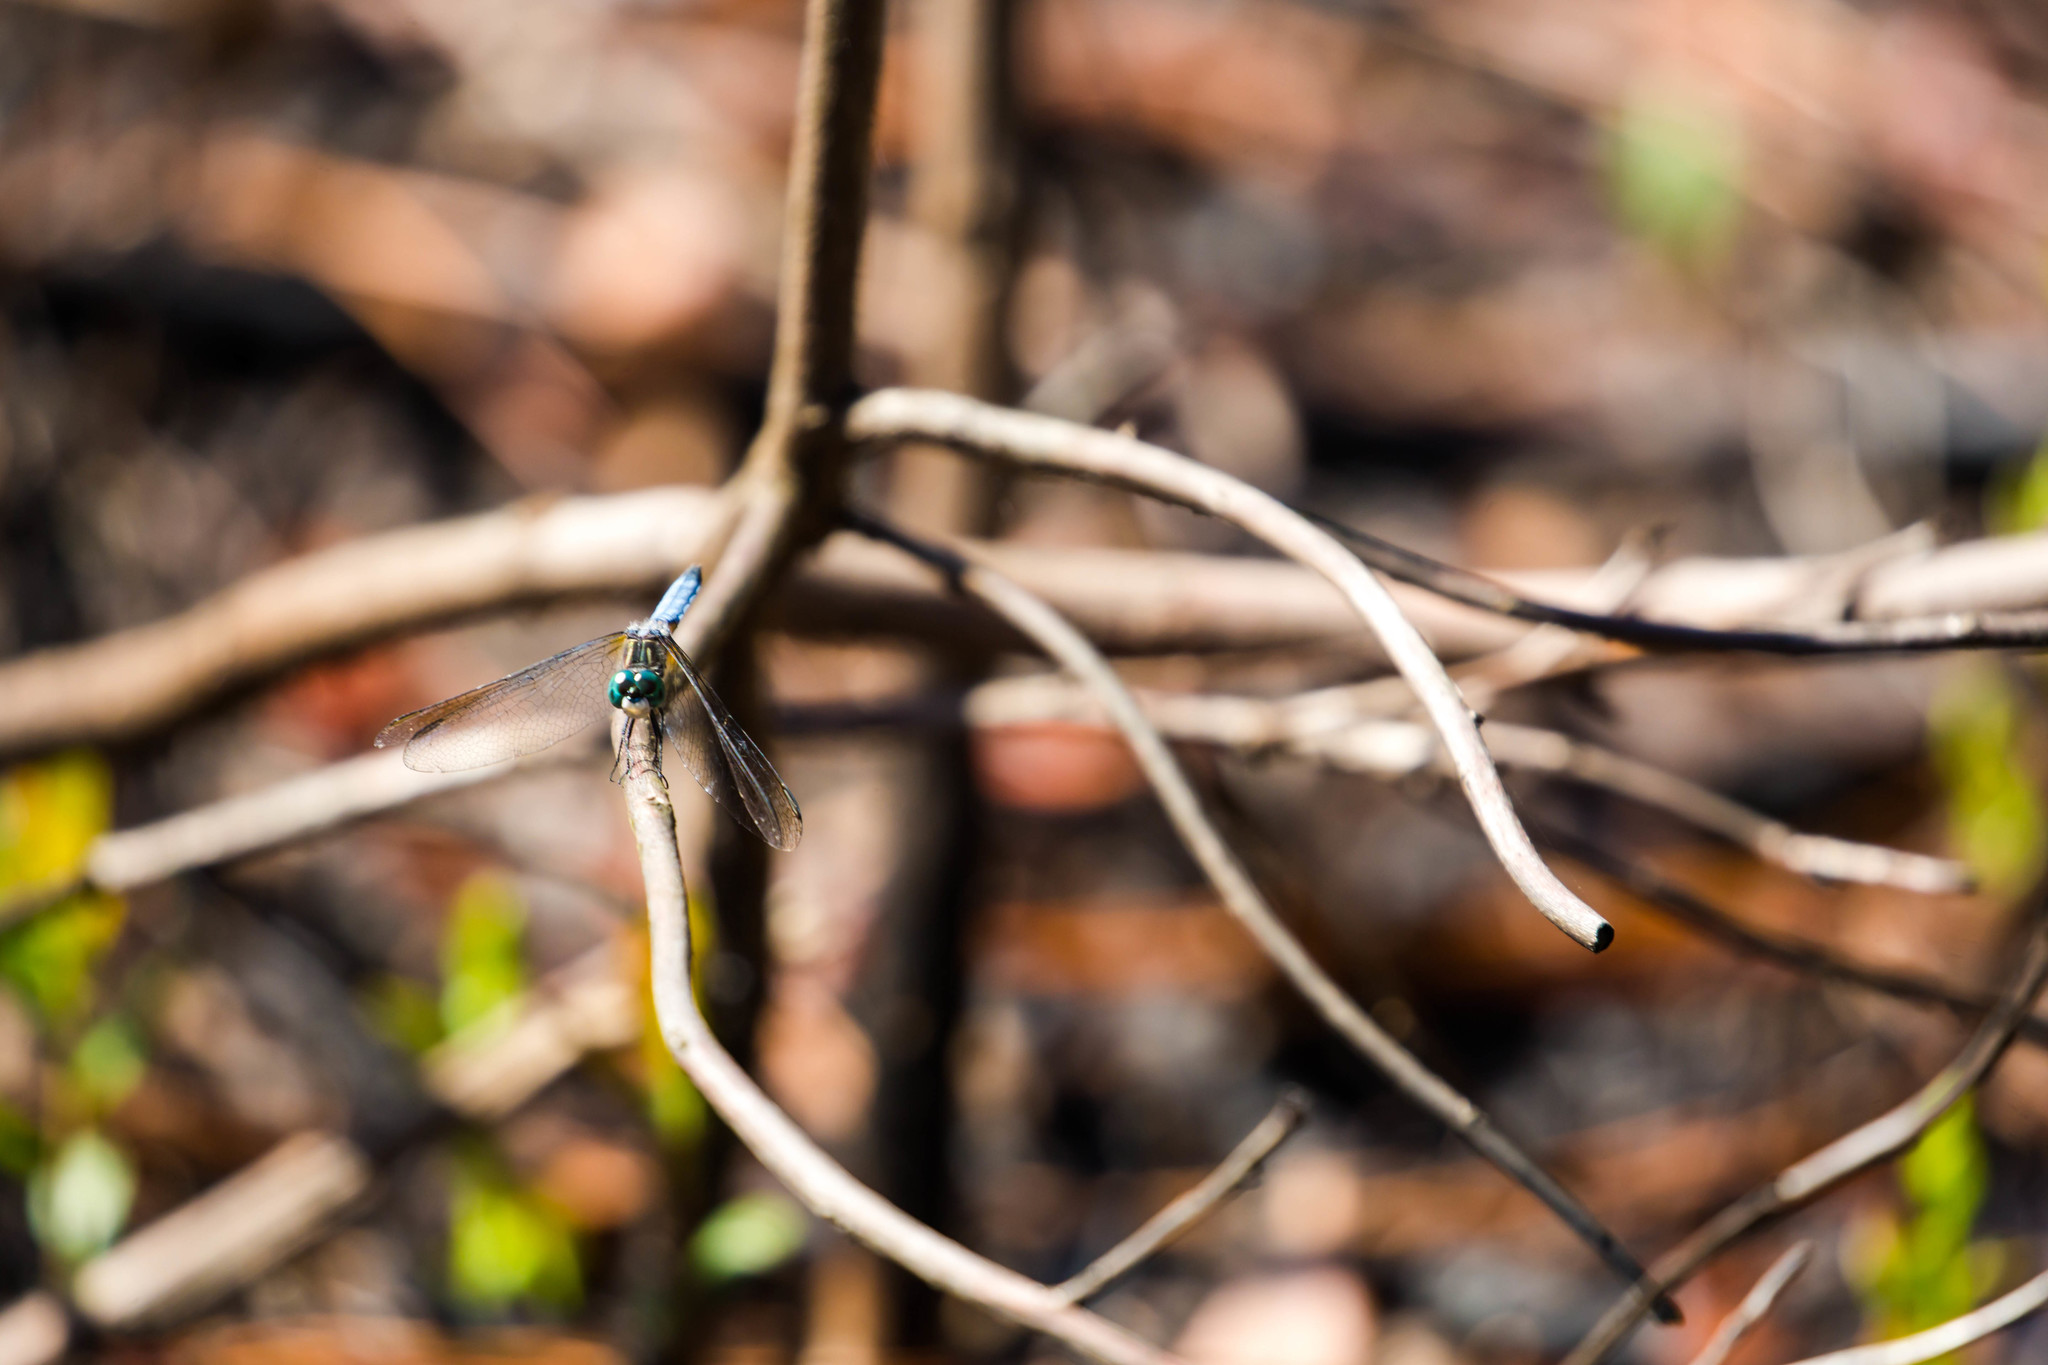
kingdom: Animalia
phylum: Arthropoda
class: Insecta
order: Odonata
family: Libellulidae
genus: Pachydiplax
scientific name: Pachydiplax longipennis
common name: Blue dasher
